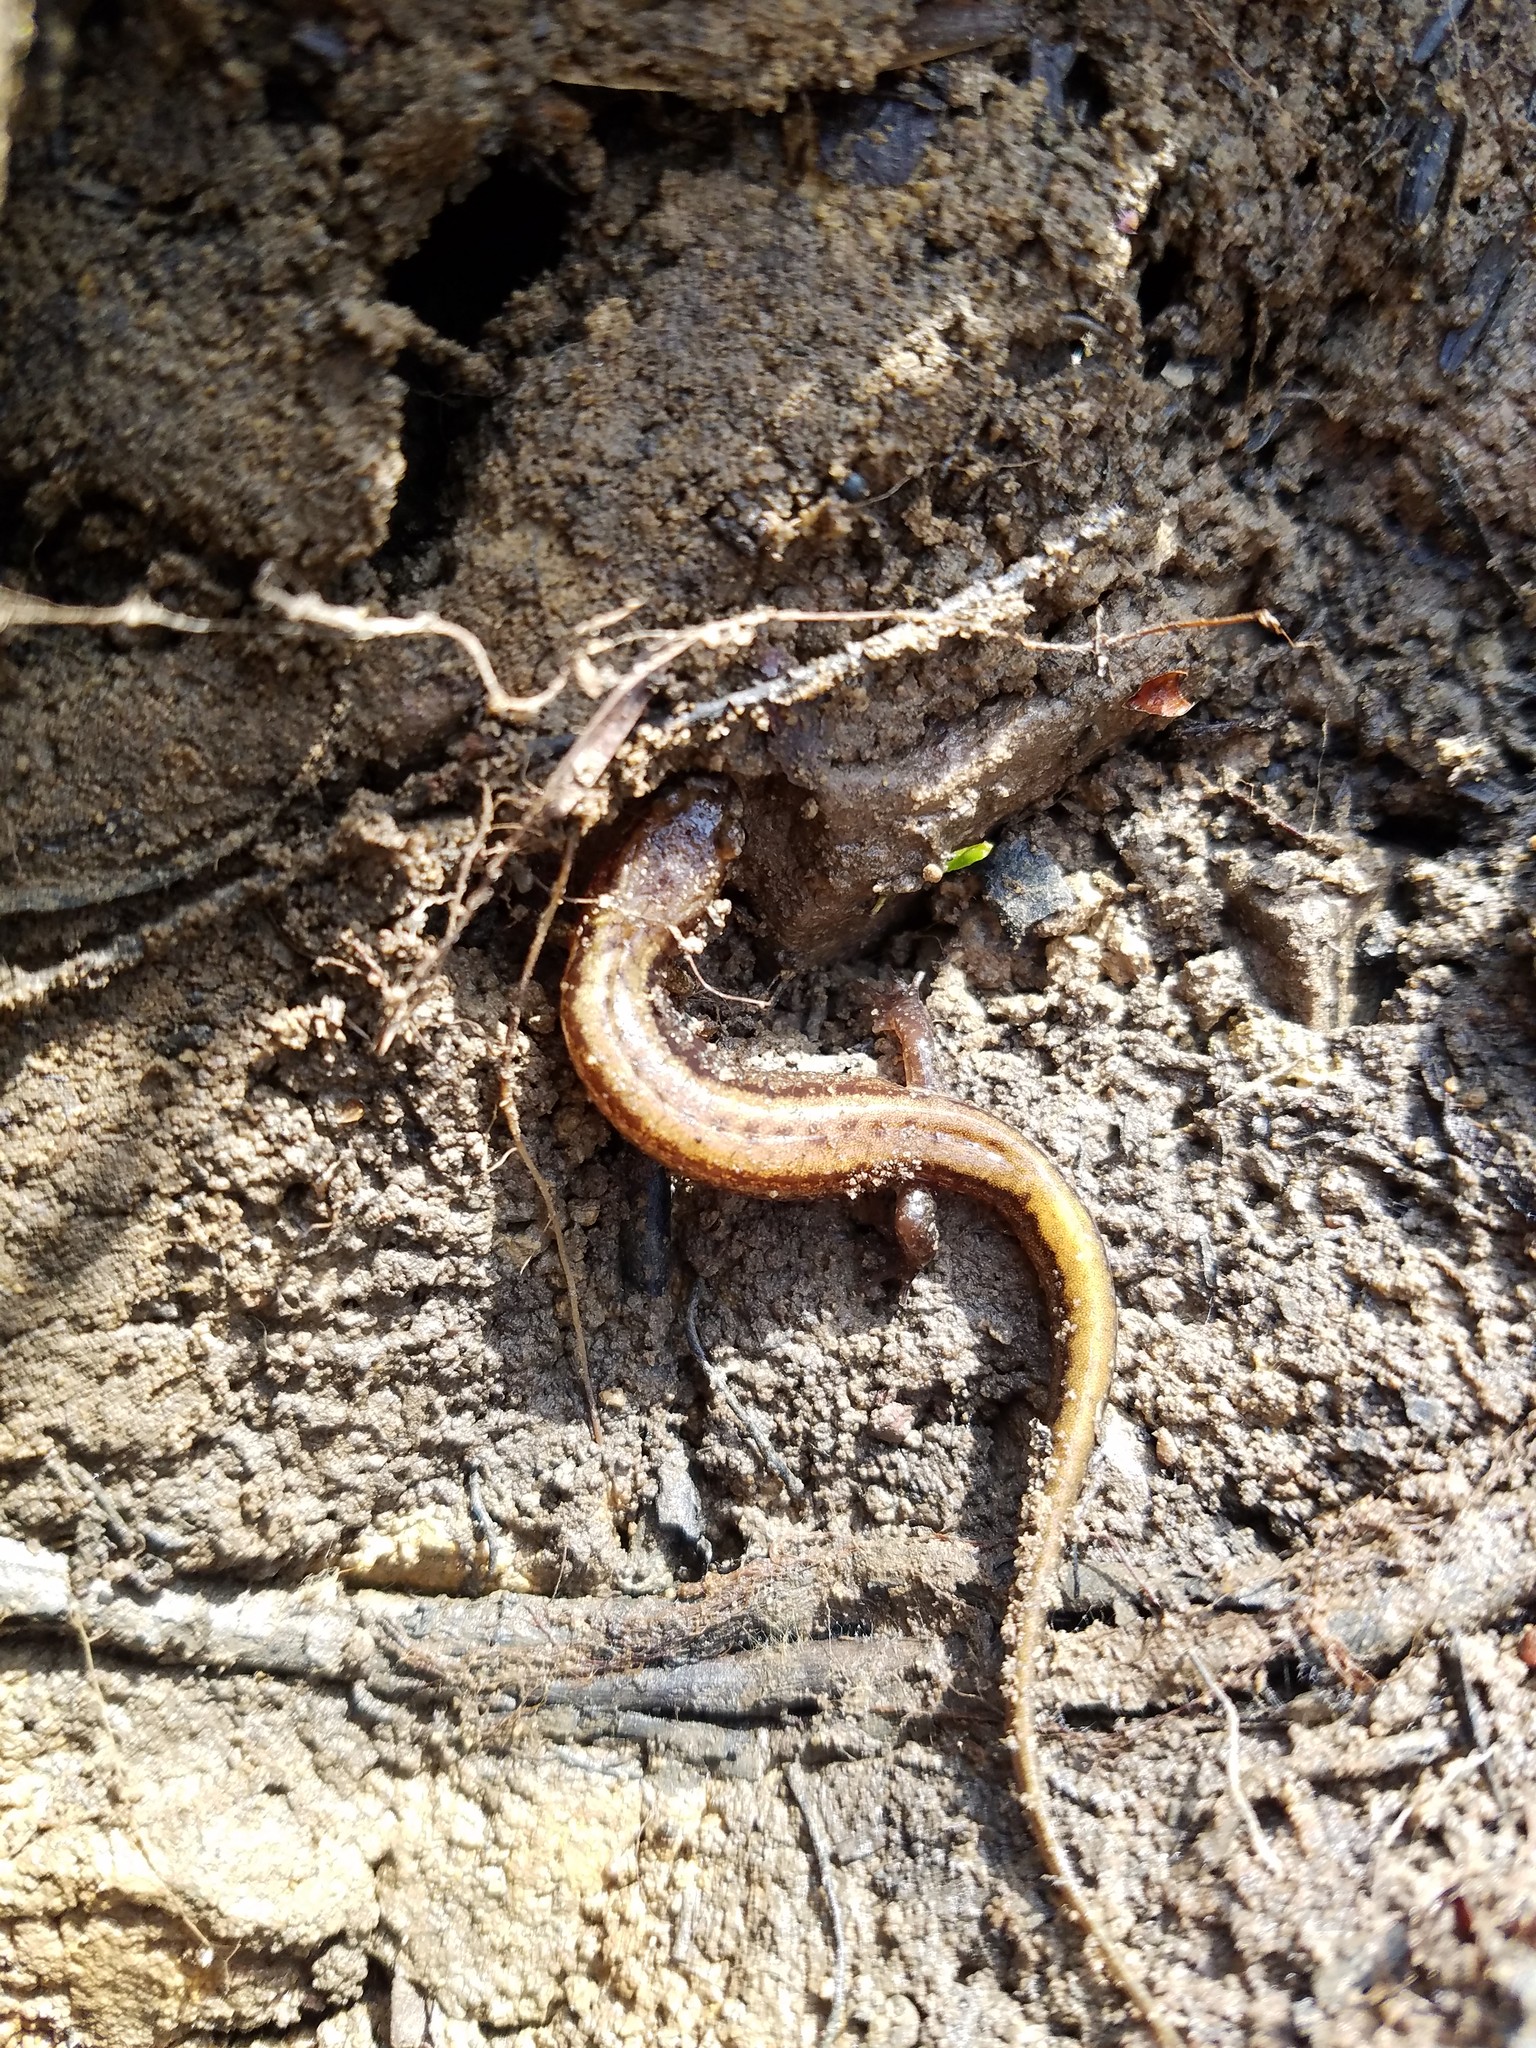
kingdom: Animalia
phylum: Chordata
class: Amphibia
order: Caudata
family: Plethodontidae
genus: Desmognathus
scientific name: Desmognathus ochrophaeus
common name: Allegheny mountain dusky salamander
